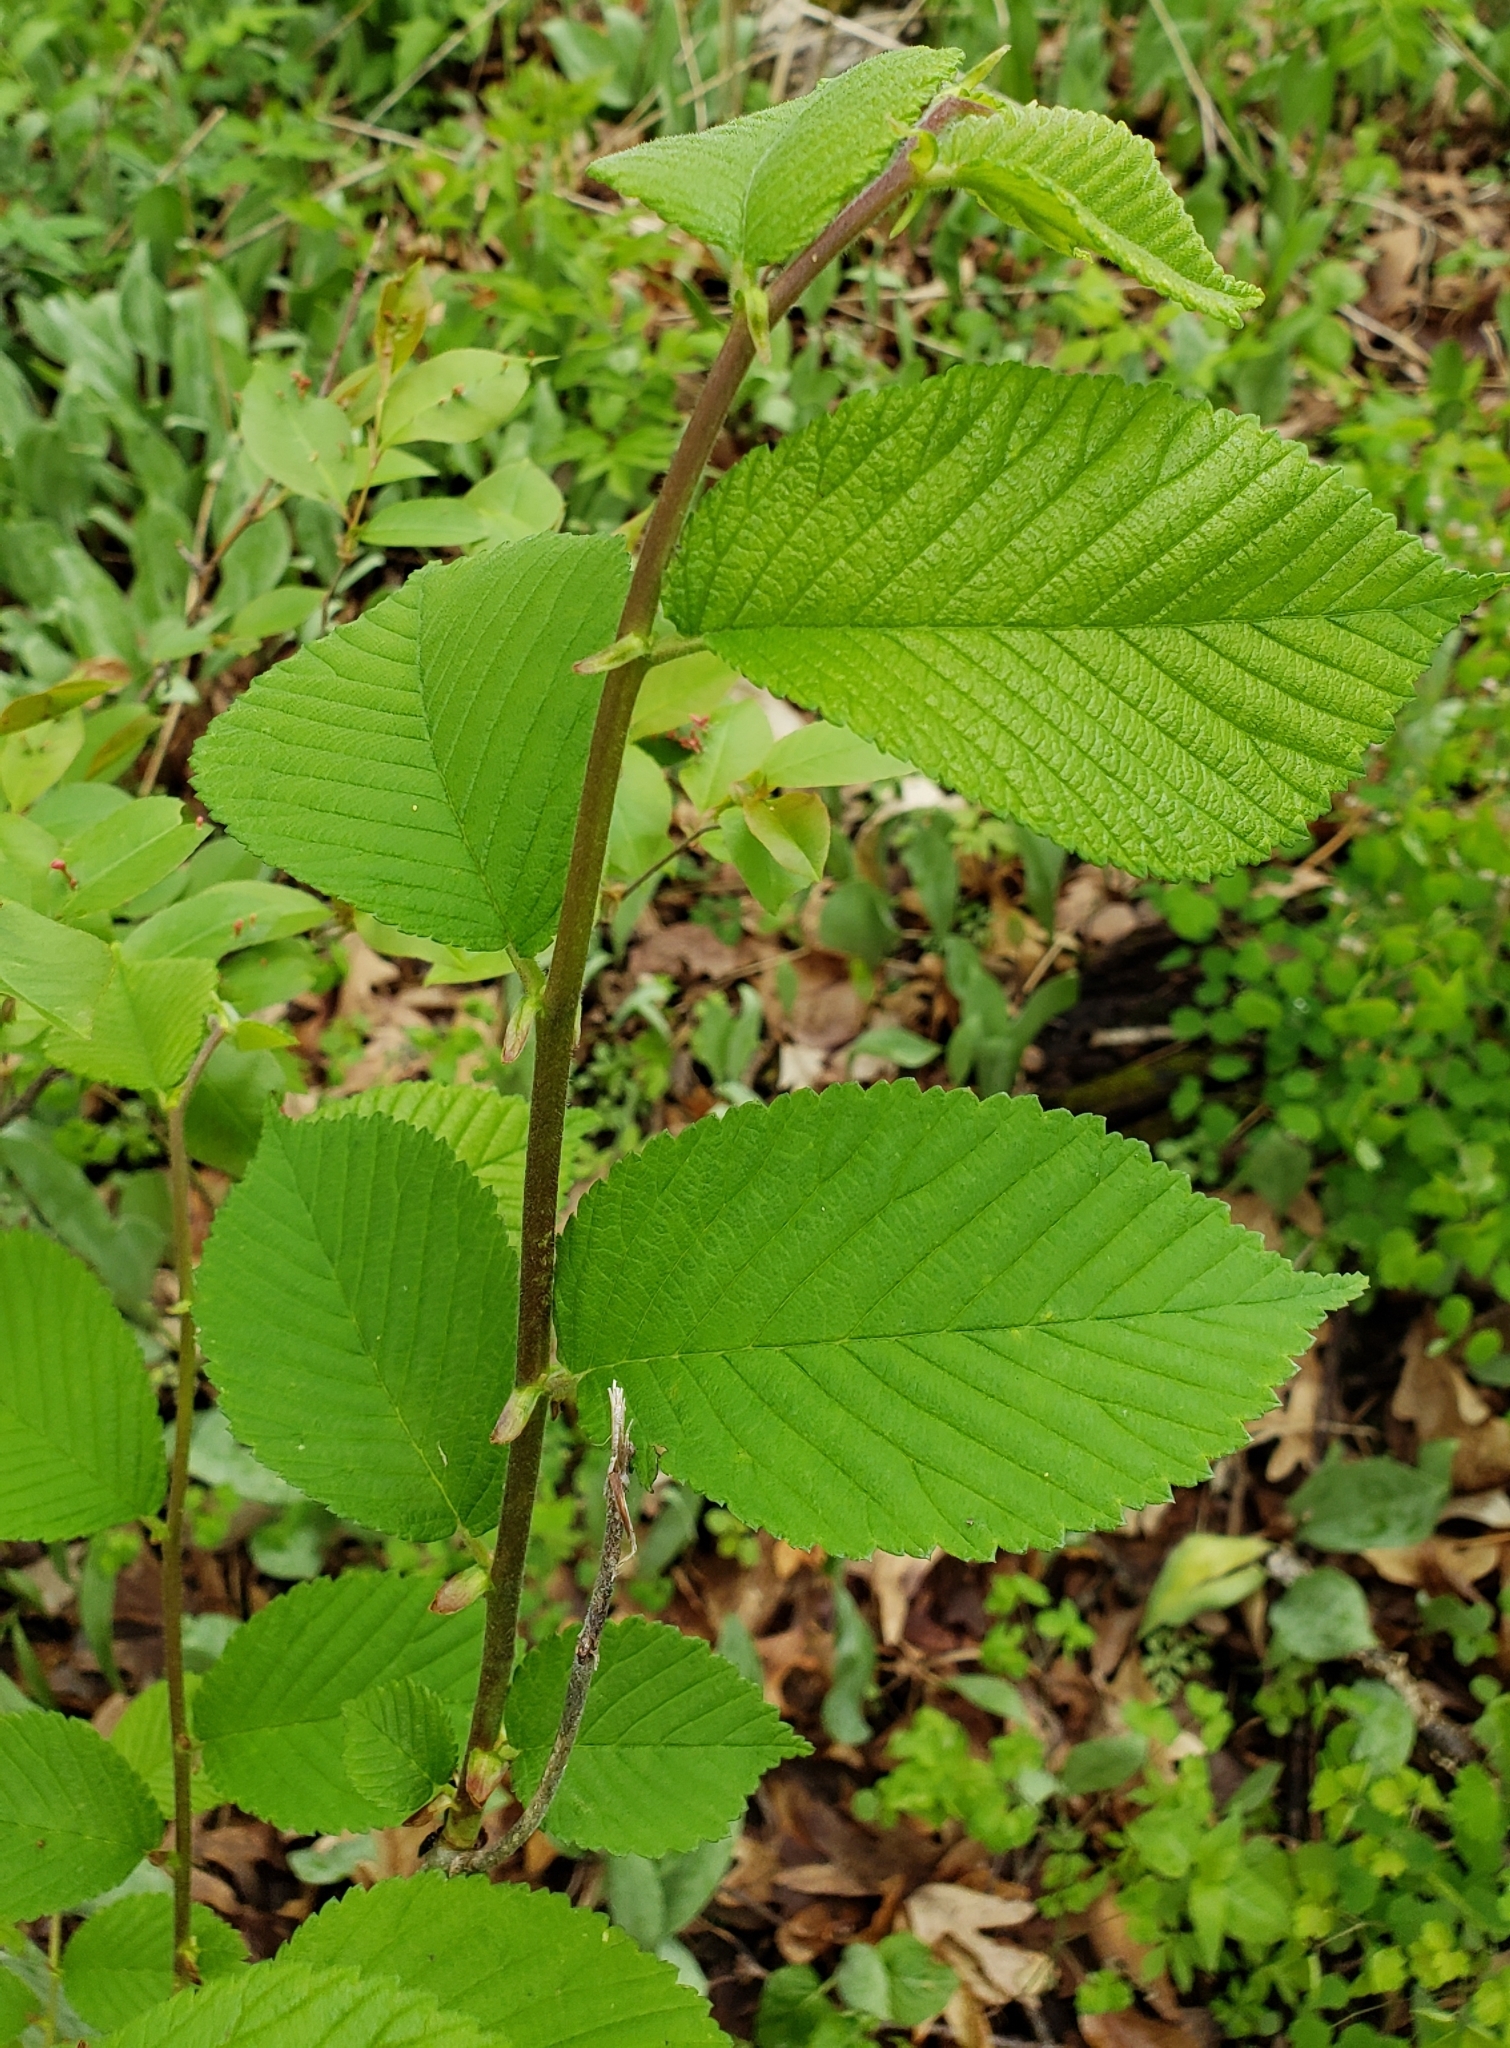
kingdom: Plantae
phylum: Tracheophyta
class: Magnoliopsida
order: Rosales
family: Ulmaceae
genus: Ulmus
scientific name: Ulmus rubra
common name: Slippery elm
